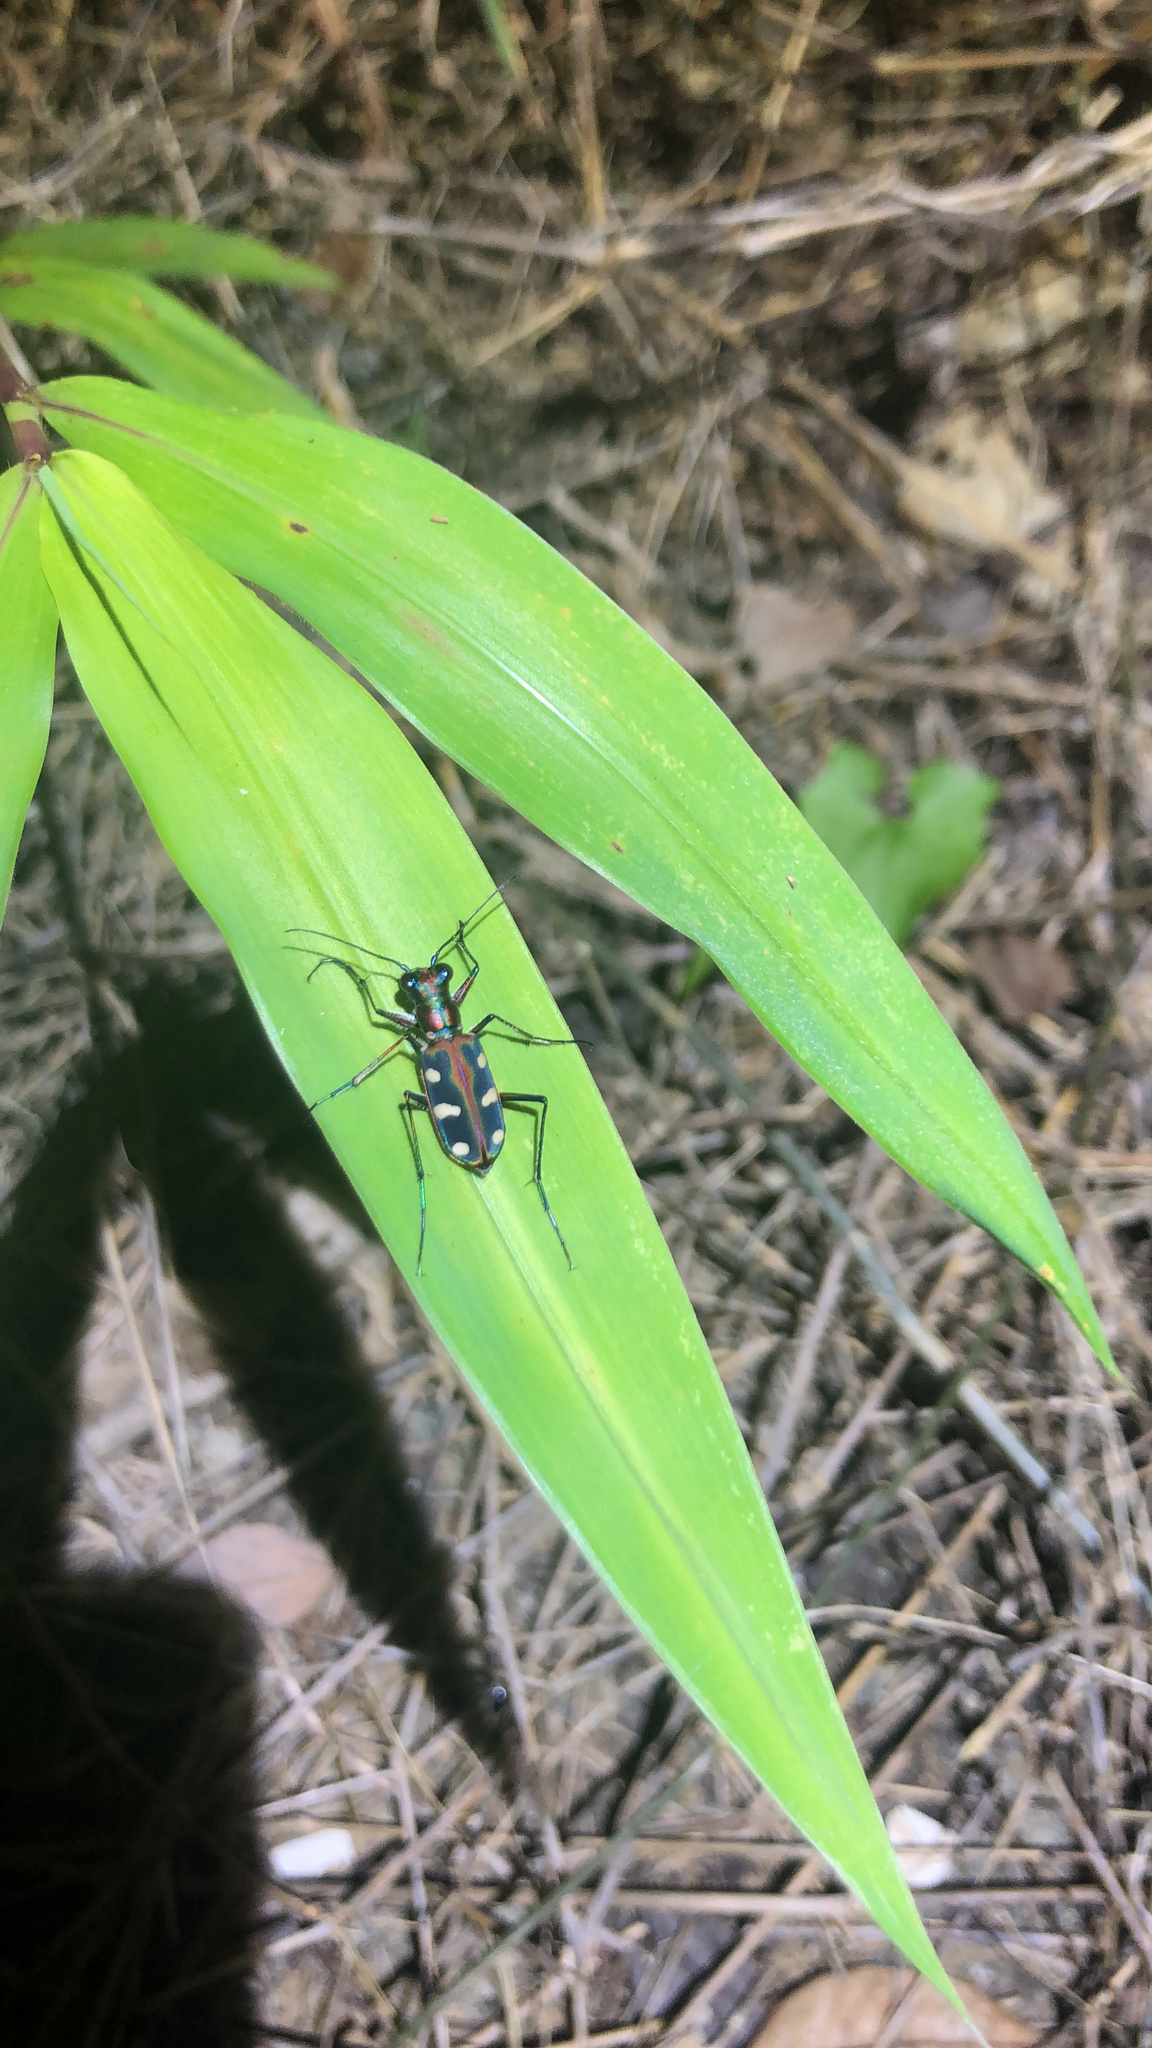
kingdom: Animalia
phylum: Arthropoda
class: Insecta
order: Coleoptera
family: Carabidae
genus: Cicindela
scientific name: Cicindela juxtata
